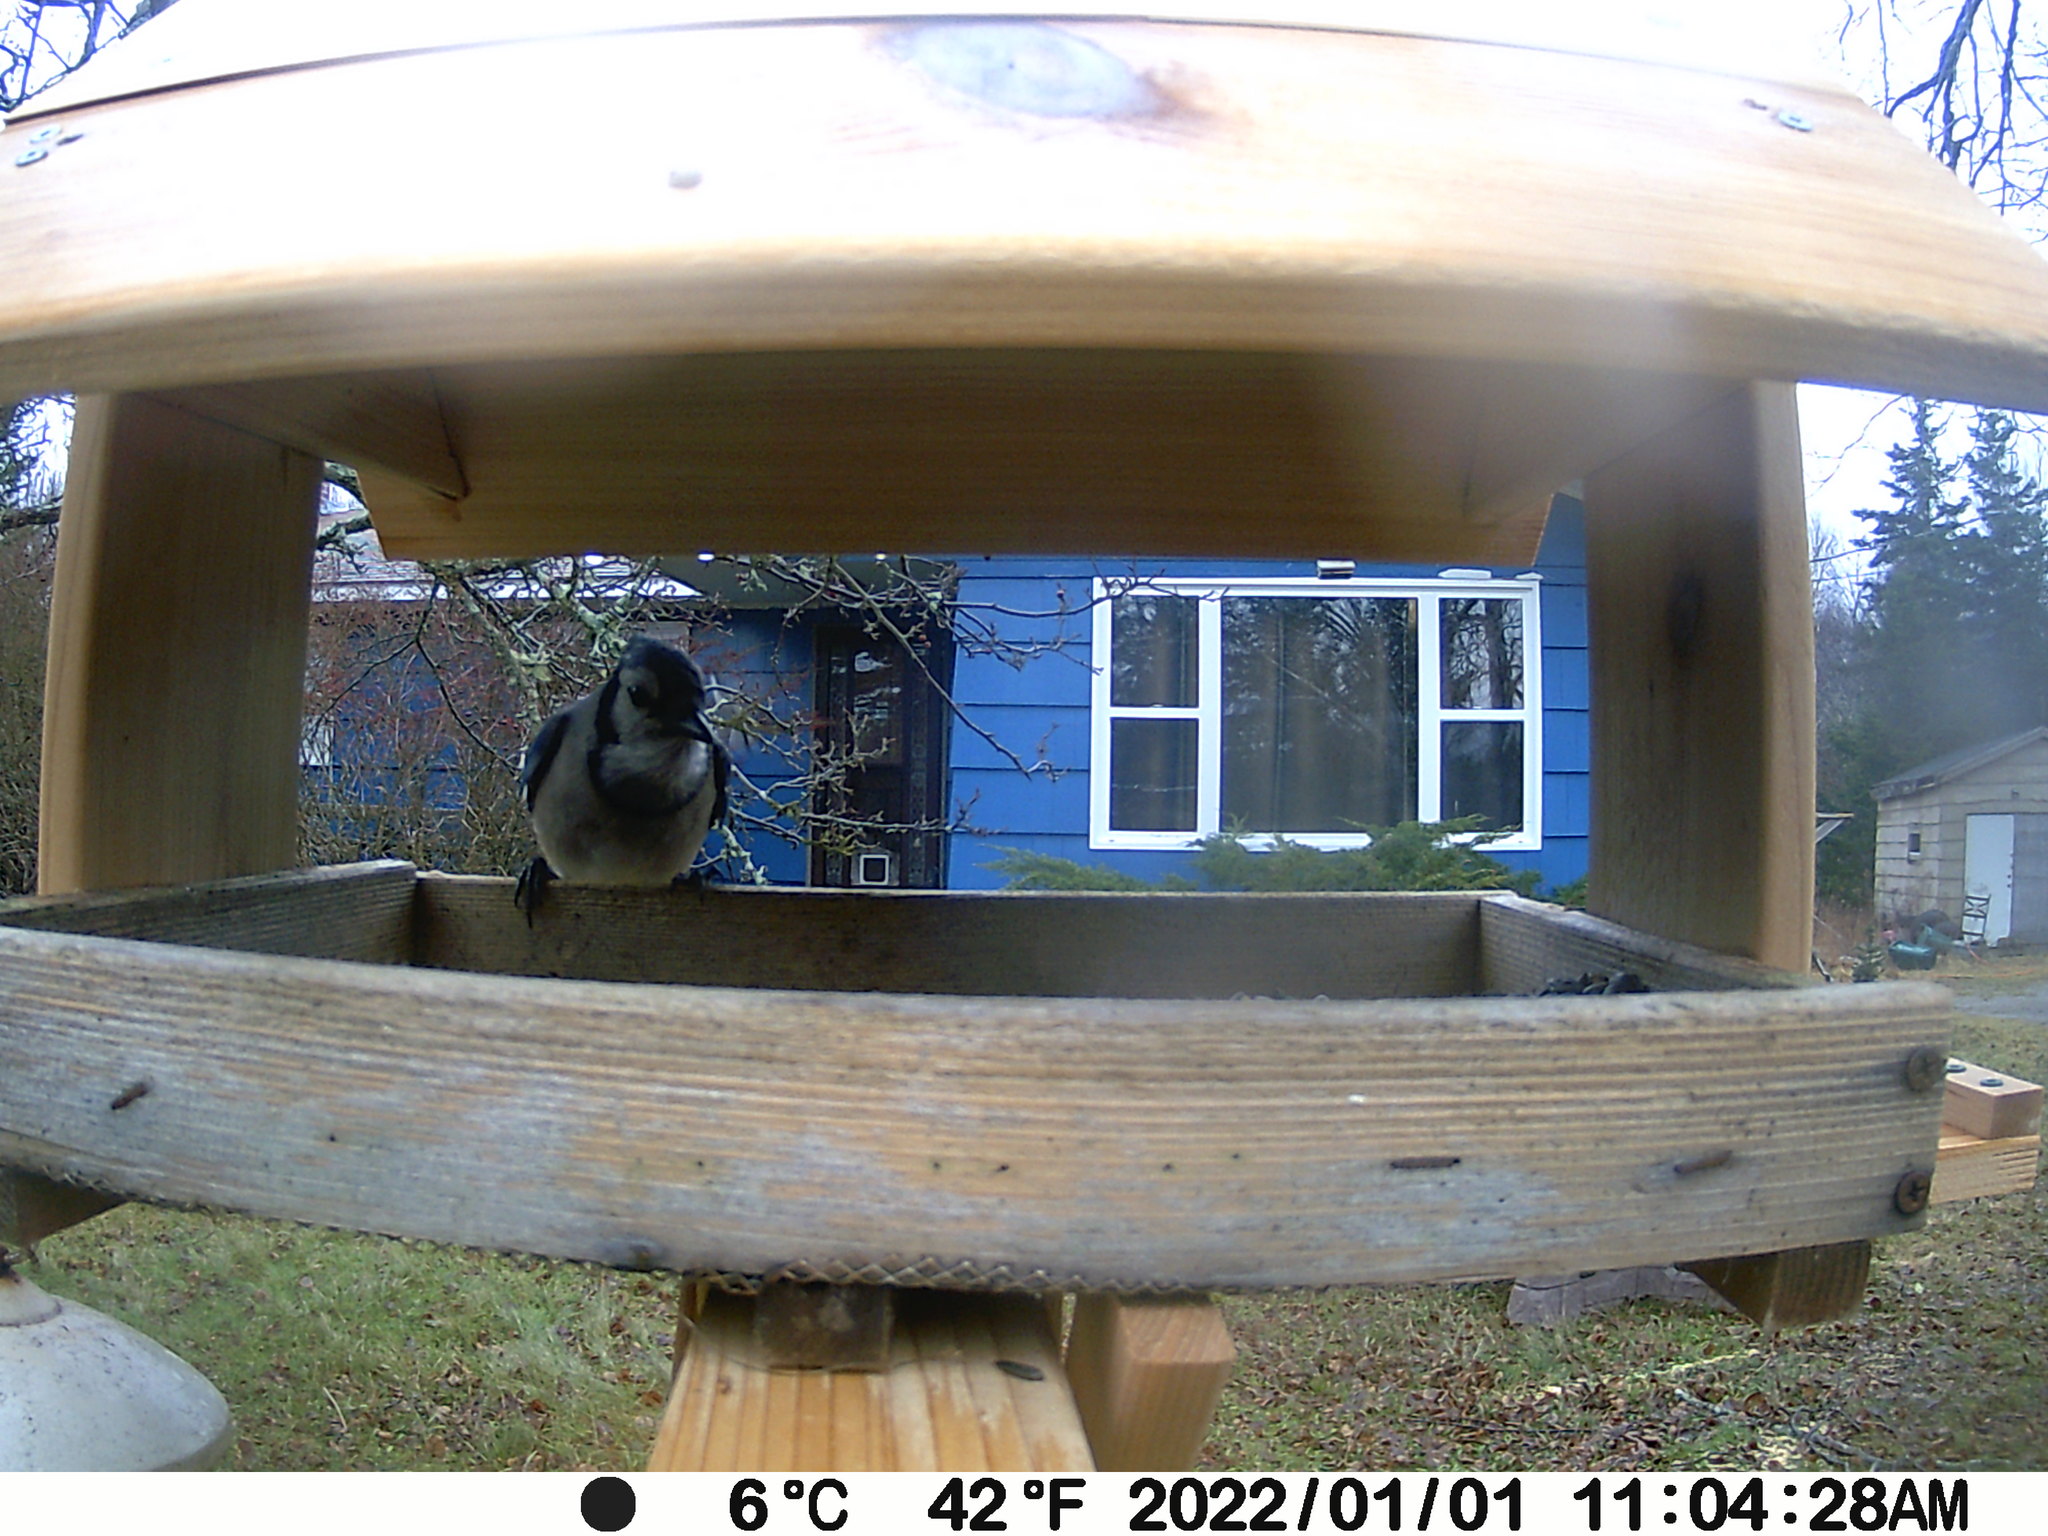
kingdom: Animalia
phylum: Chordata
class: Aves
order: Passeriformes
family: Corvidae
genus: Cyanocitta
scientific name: Cyanocitta cristata
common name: Blue jay
